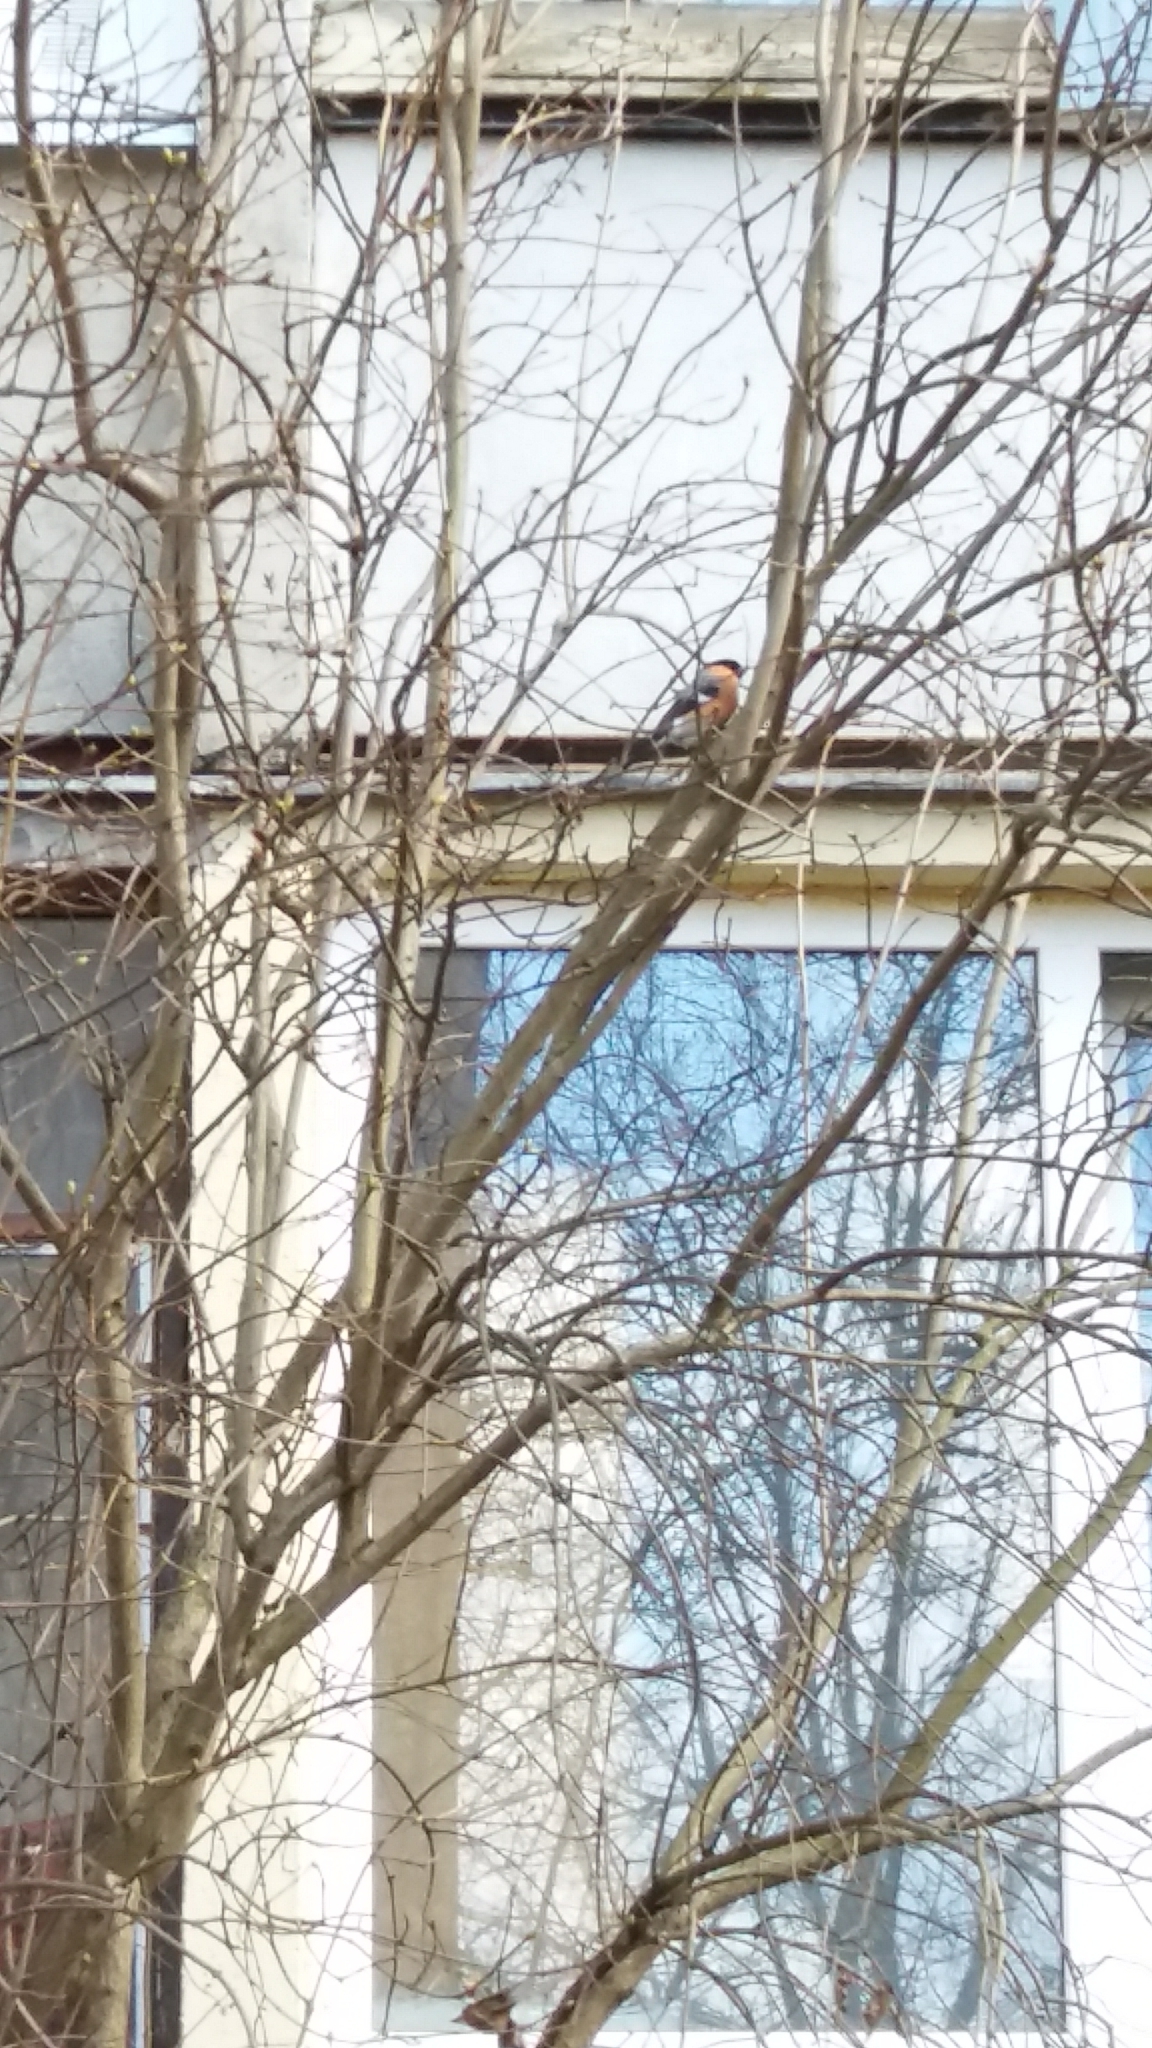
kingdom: Animalia
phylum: Chordata
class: Aves
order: Passeriformes
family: Fringillidae
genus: Pyrrhula
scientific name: Pyrrhula pyrrhula
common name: Eurasian bullfinch
